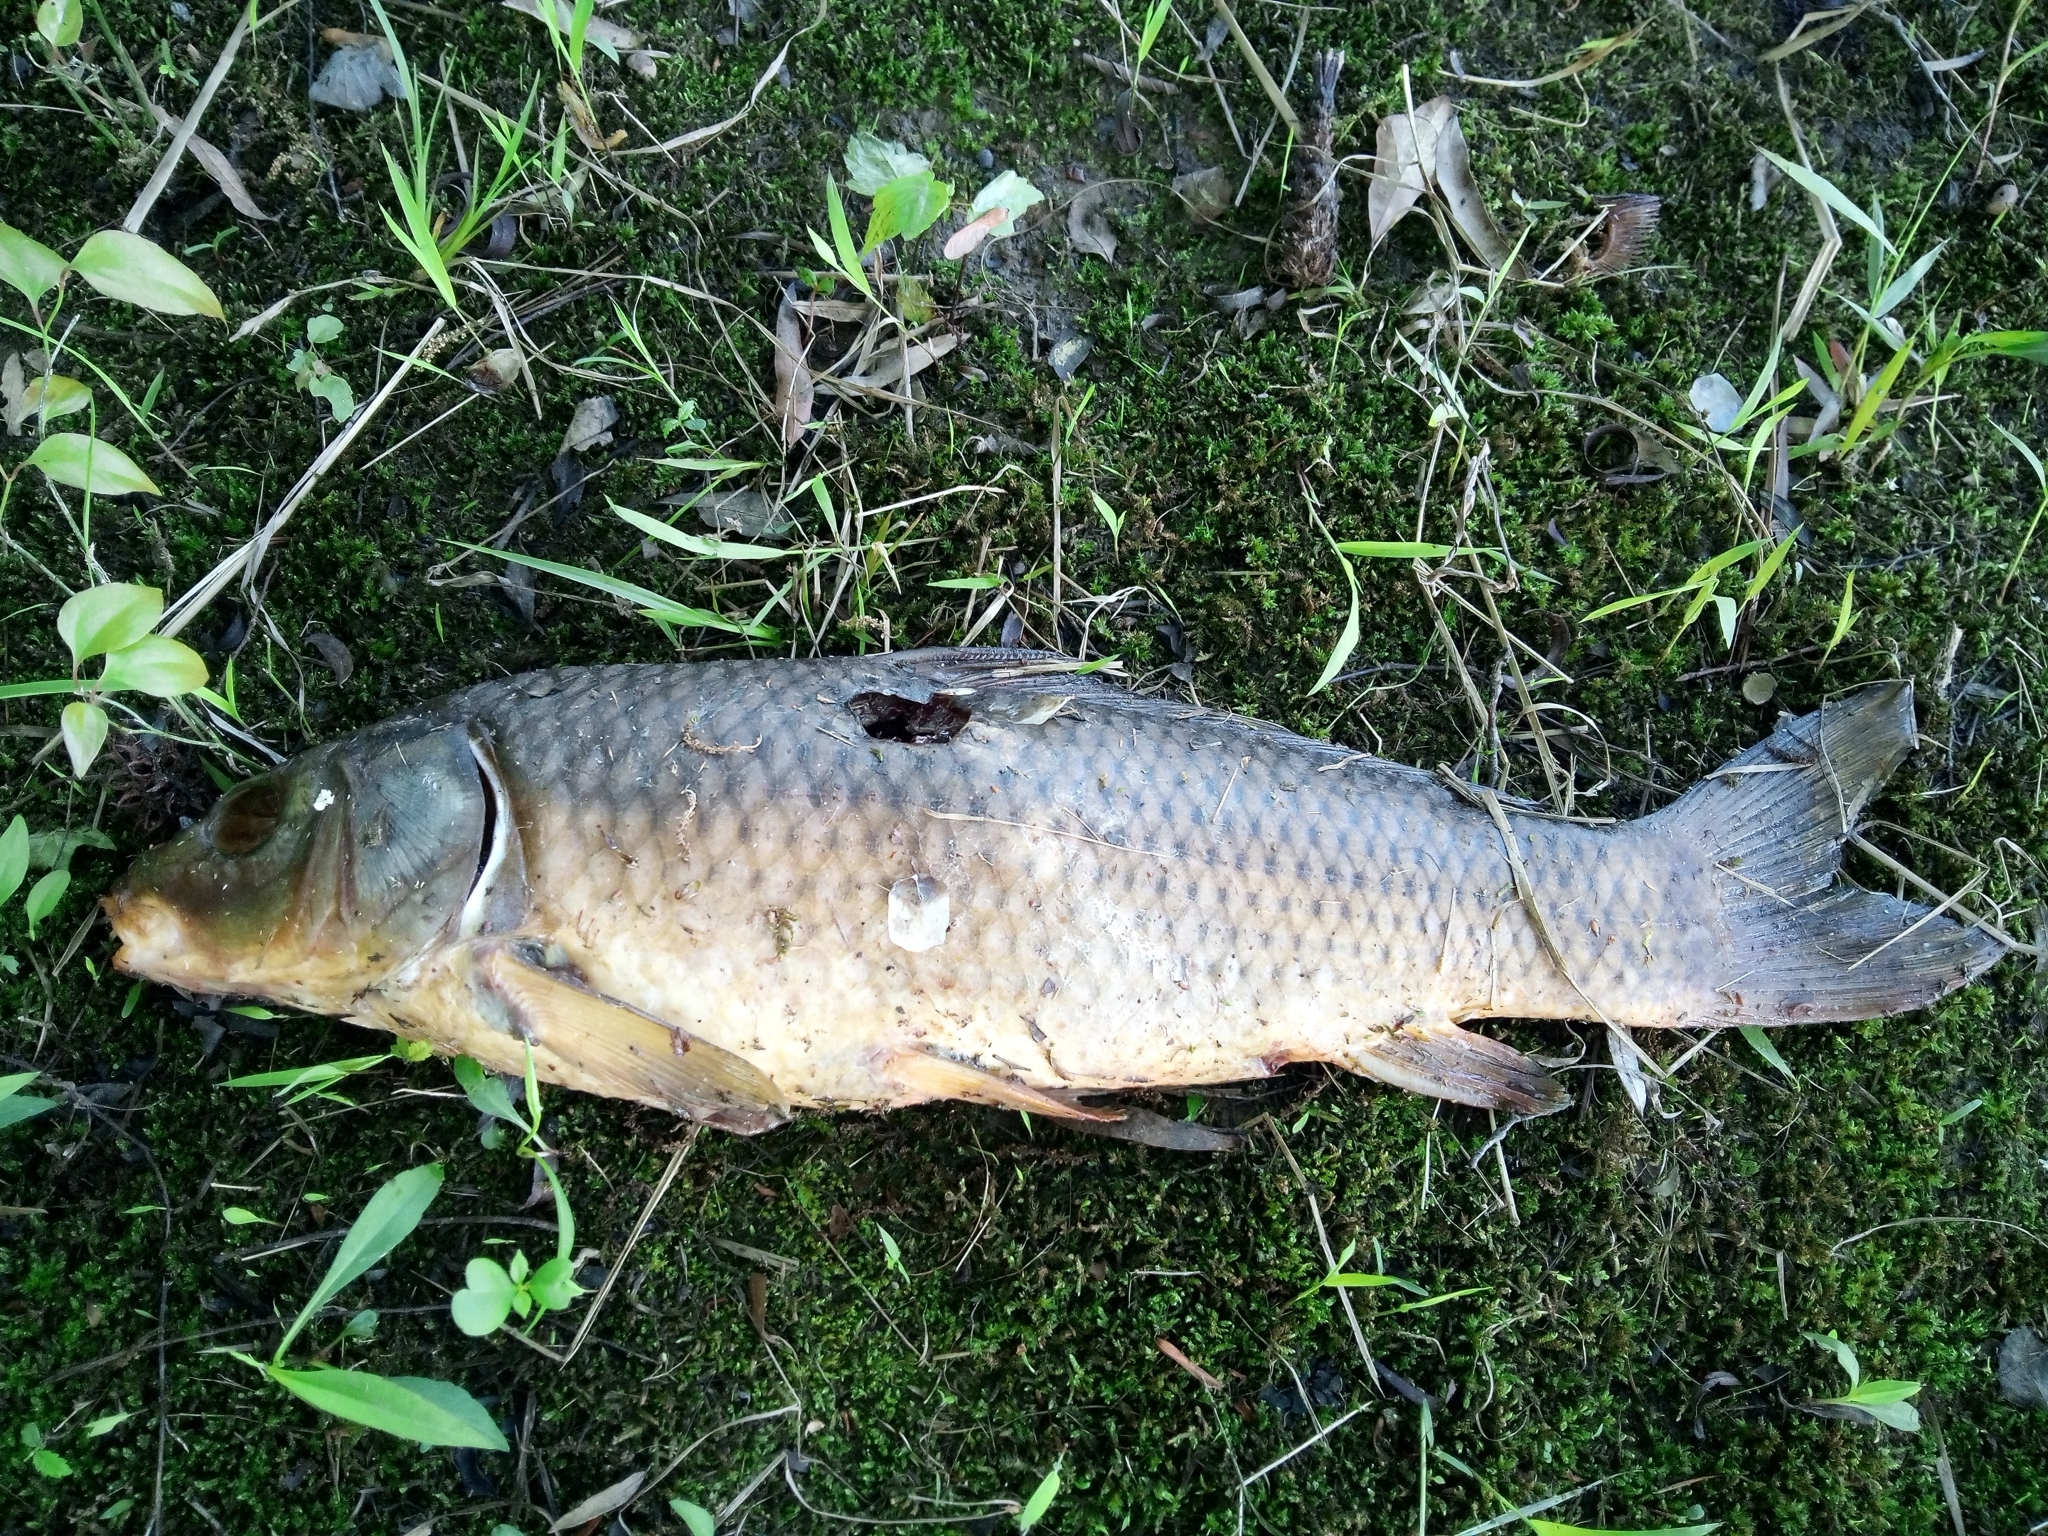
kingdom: Animalia
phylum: Chordata
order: Cypriniformes
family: Cyprinidae
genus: Cyprinus
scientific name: Cyprinus carpio
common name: Common carp
